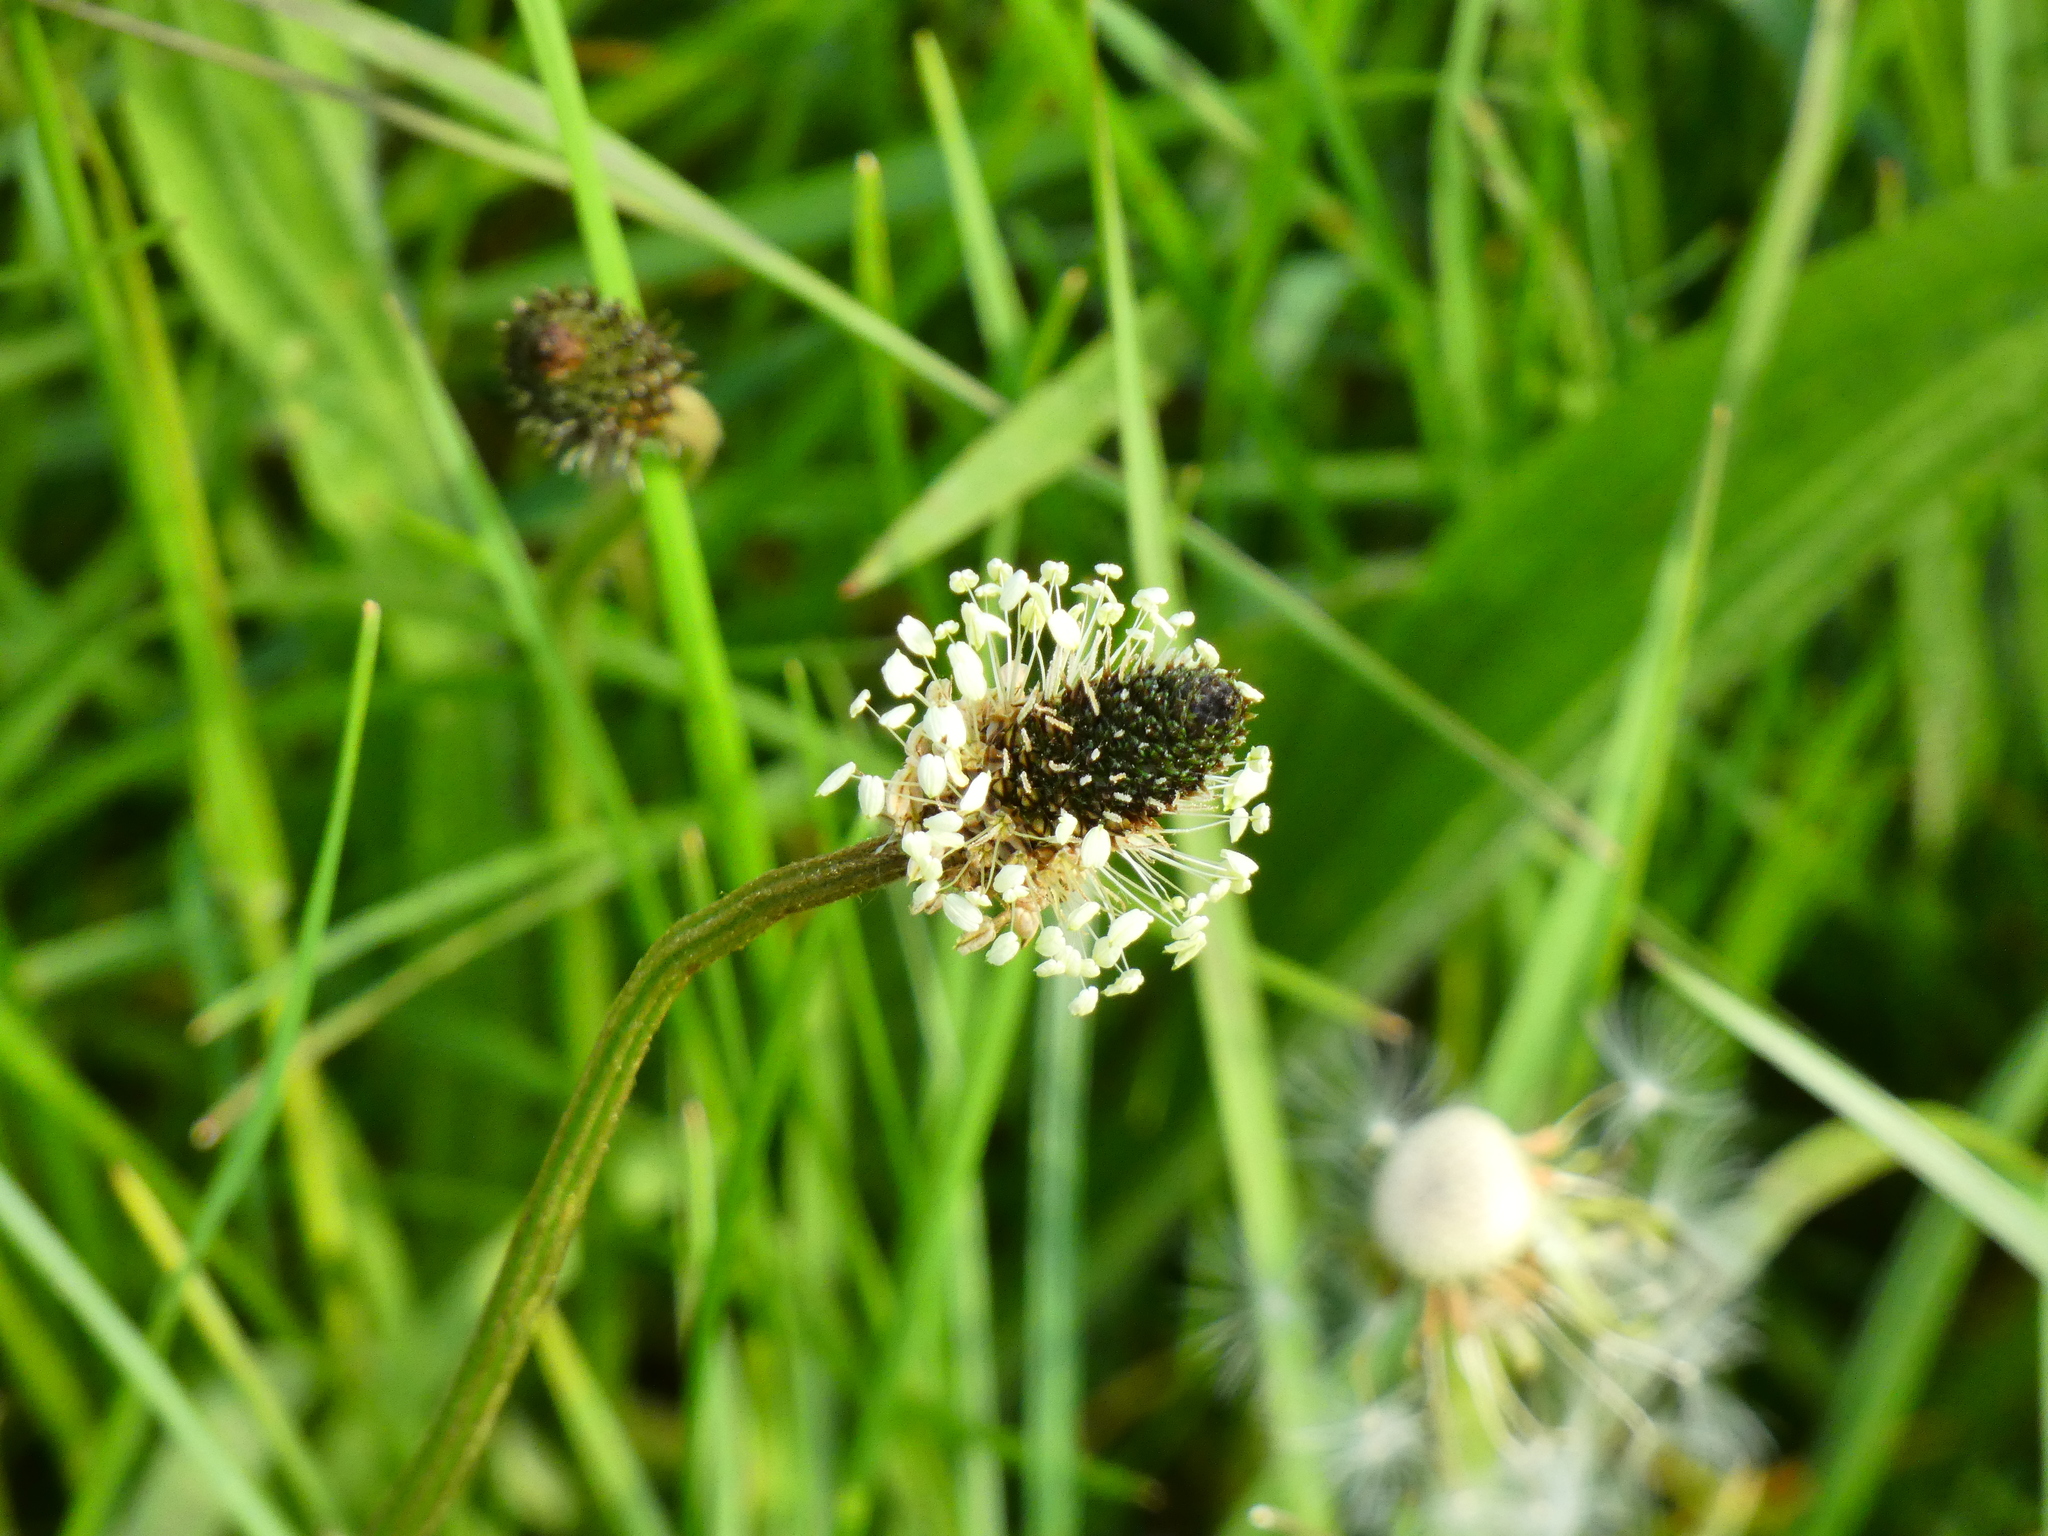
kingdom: Plantae
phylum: Tracheophyta
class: Magnoliopsida
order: Lamiales
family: Plantaginaceae
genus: Plantago
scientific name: Plantago lanceolata
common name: Ribwort plantain
